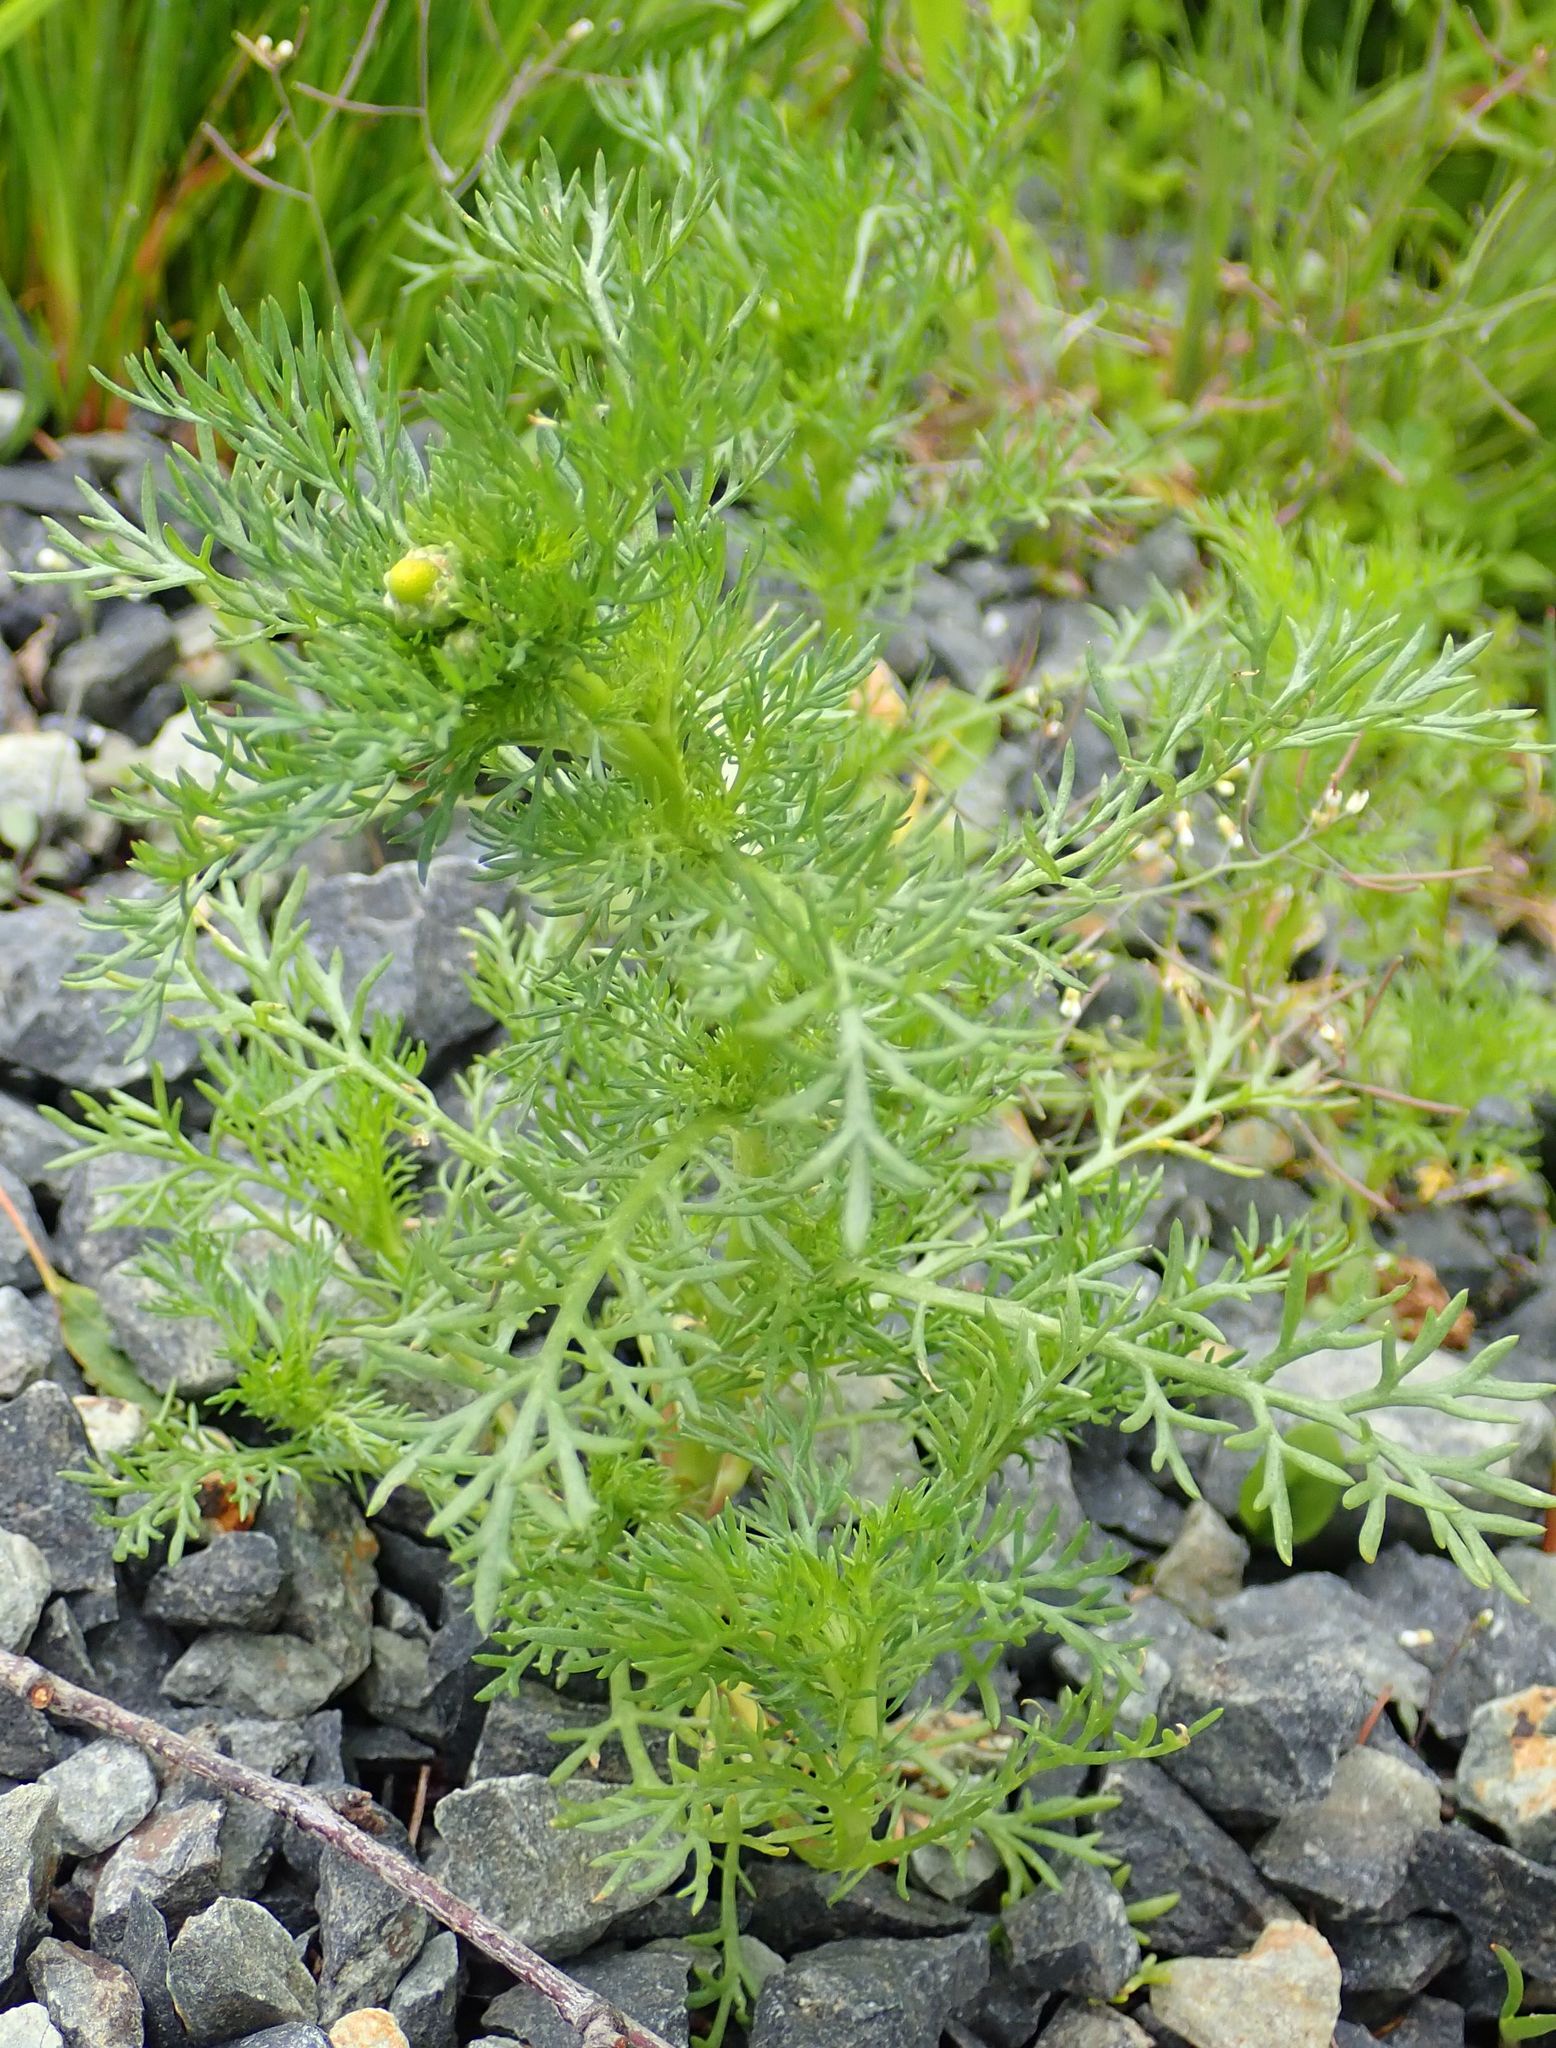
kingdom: Plantae
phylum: Tracheophyta
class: Magnoliopsida
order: Asterales
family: Asteraceae
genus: Matricaria
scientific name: Matricaria discoidea
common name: Disc mayweed
